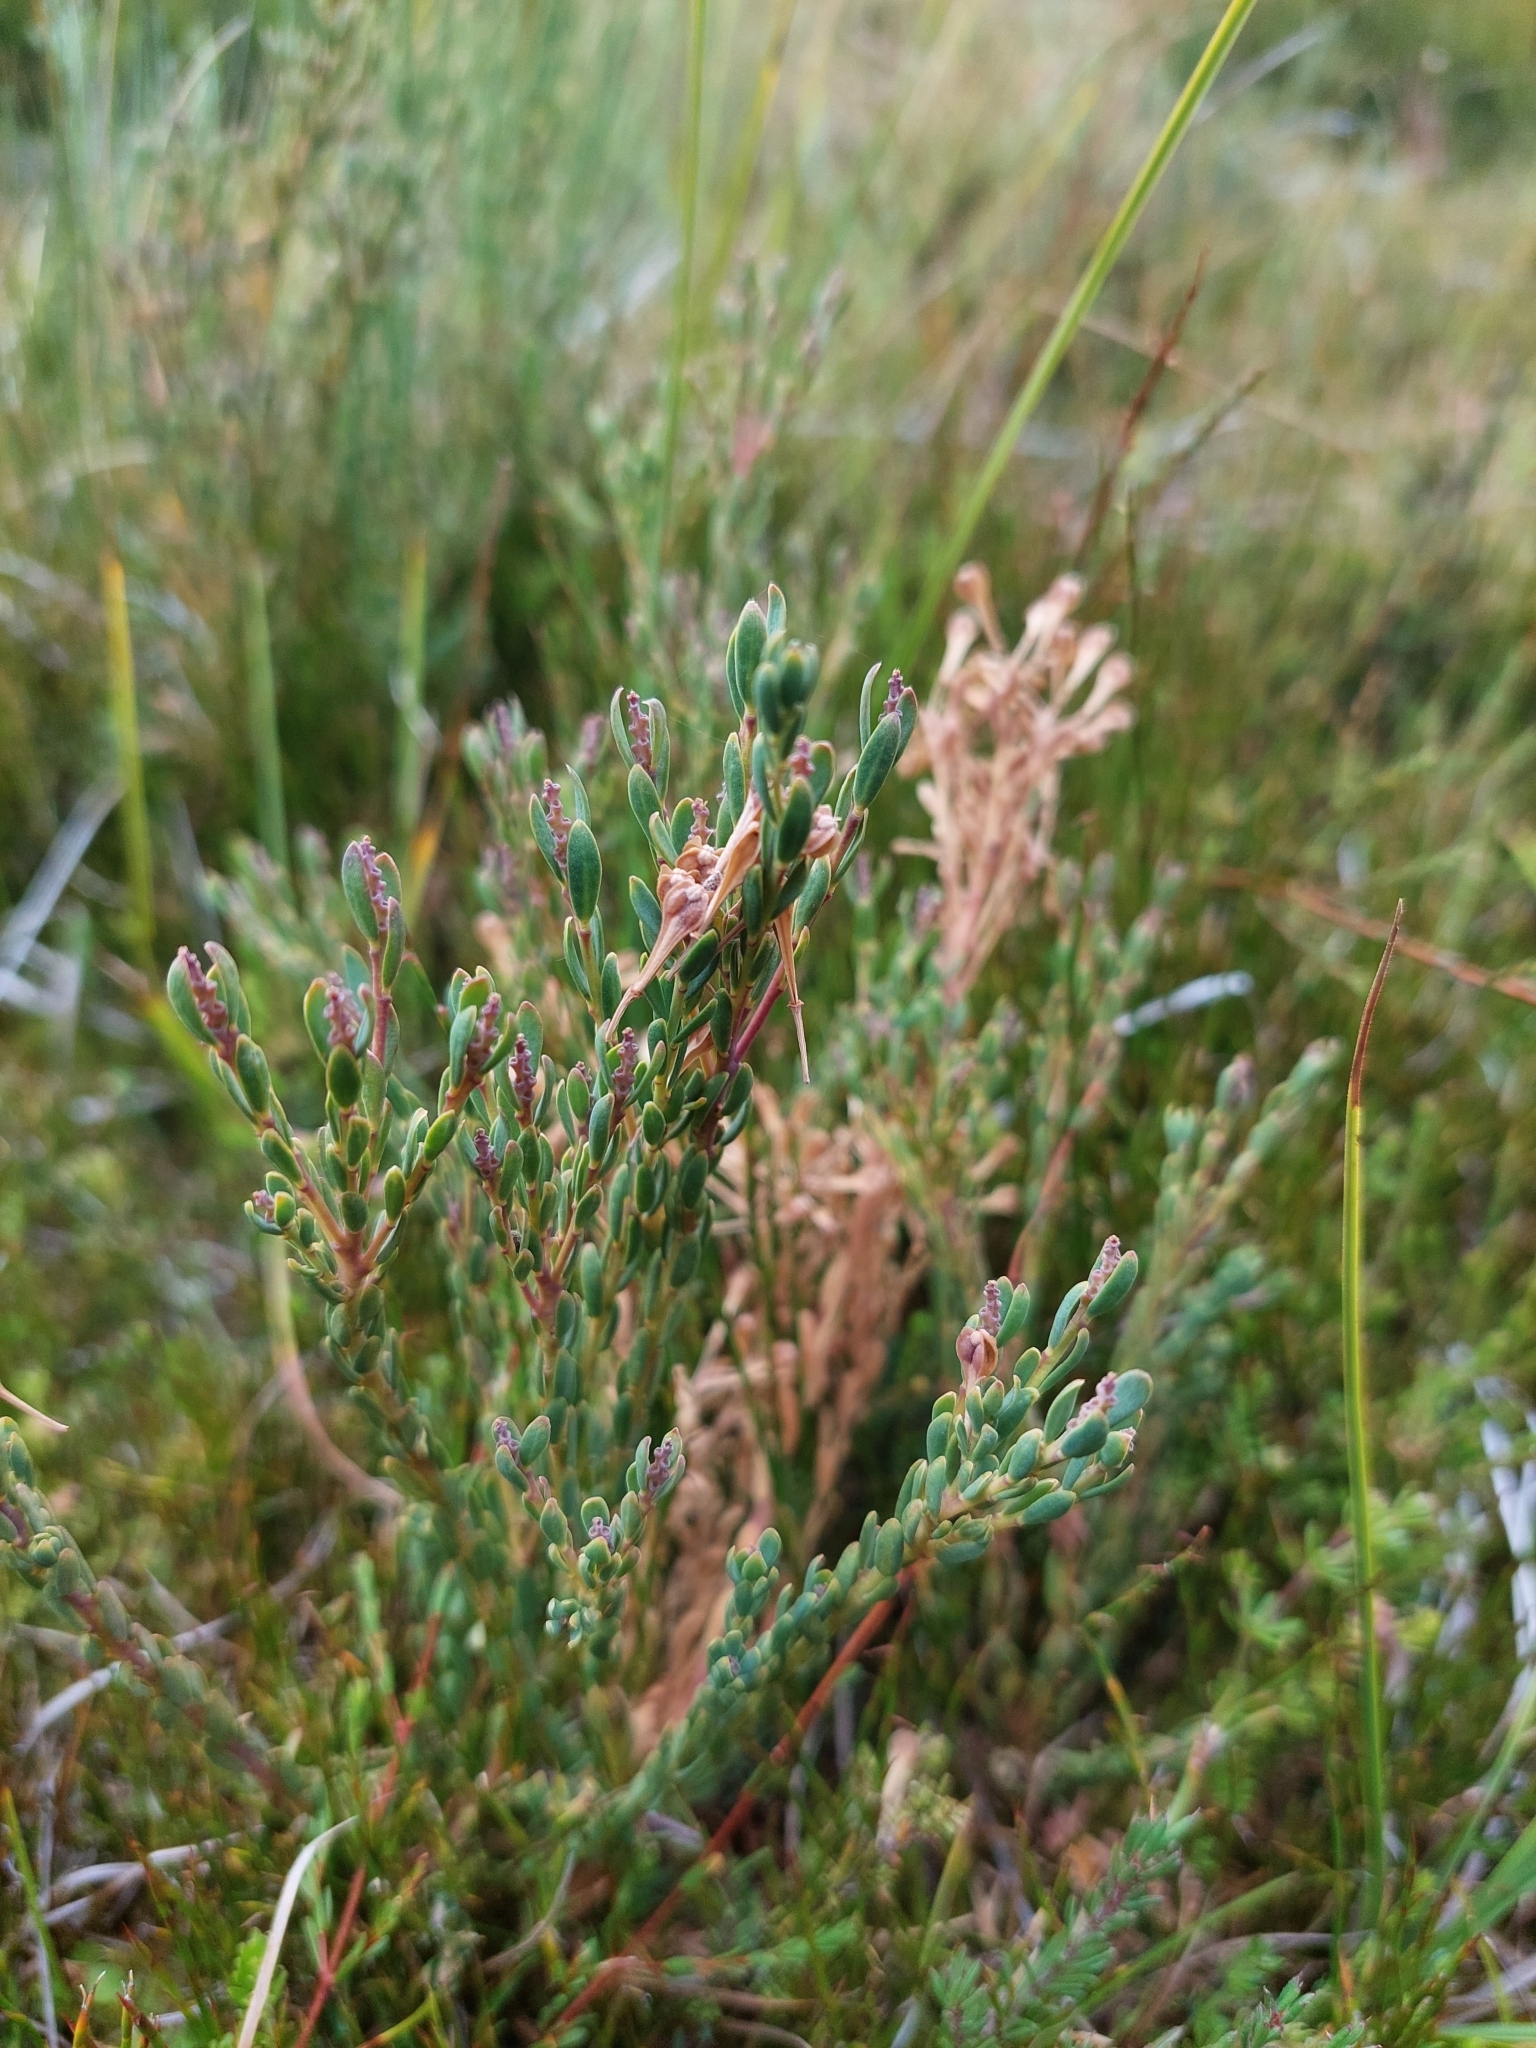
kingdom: Plantae
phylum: Tracheophyta
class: Magnoliopsida
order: Fabales
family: Polygalaceae
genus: Comesperma
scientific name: Comesperma retusum
